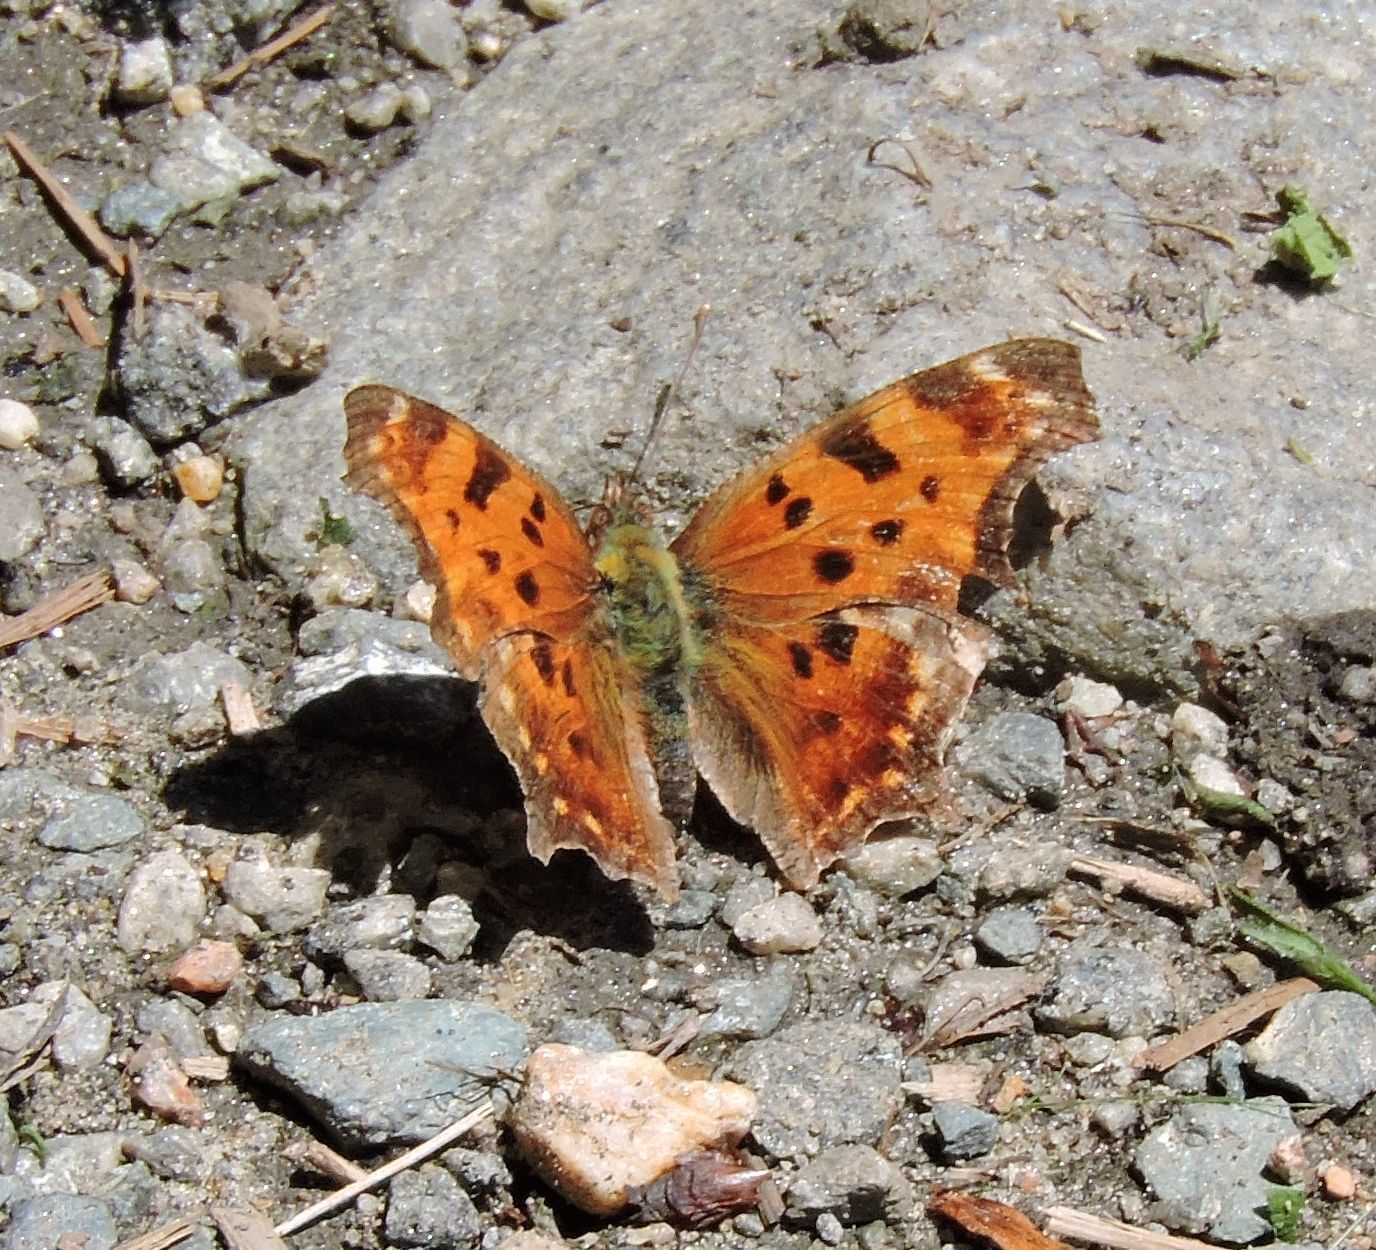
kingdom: Animalia
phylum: Arthropoda
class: Insecta
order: Lepidoptera
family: Nymphalidae
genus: Polygonia
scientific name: Polygonia comma
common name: Eastern comma
